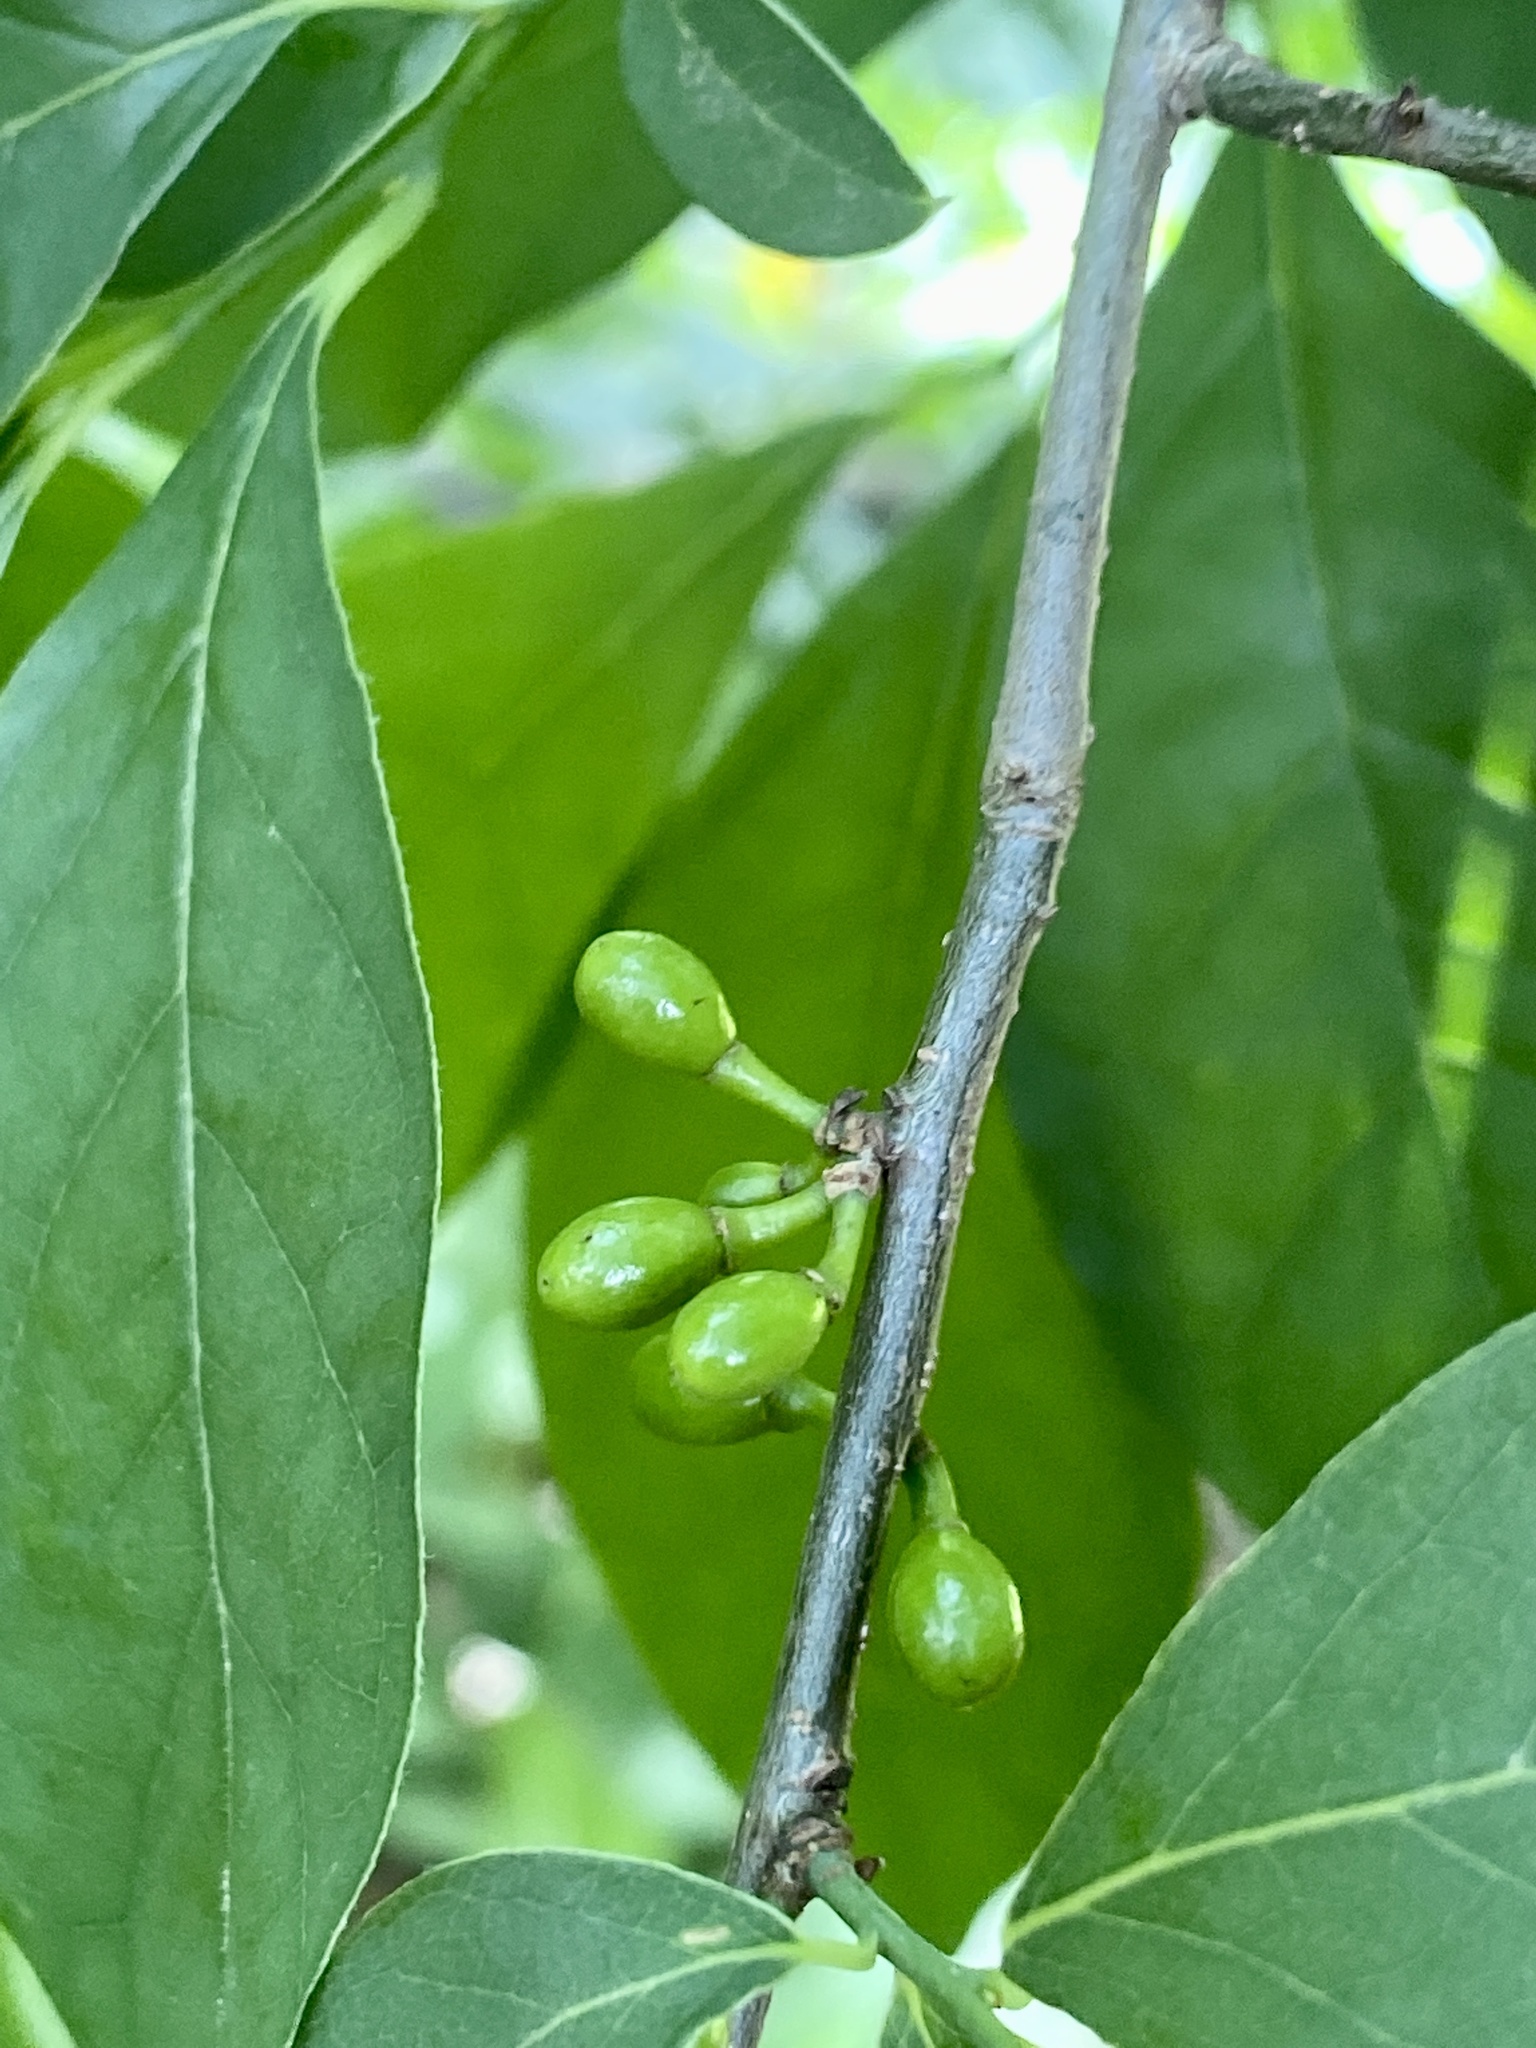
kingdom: Plantae
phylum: Tracheophyta
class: Magnoliopsida
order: Laurales
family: Lauraceae
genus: Lindera
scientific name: Lindera benzoin
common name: Spicebush
